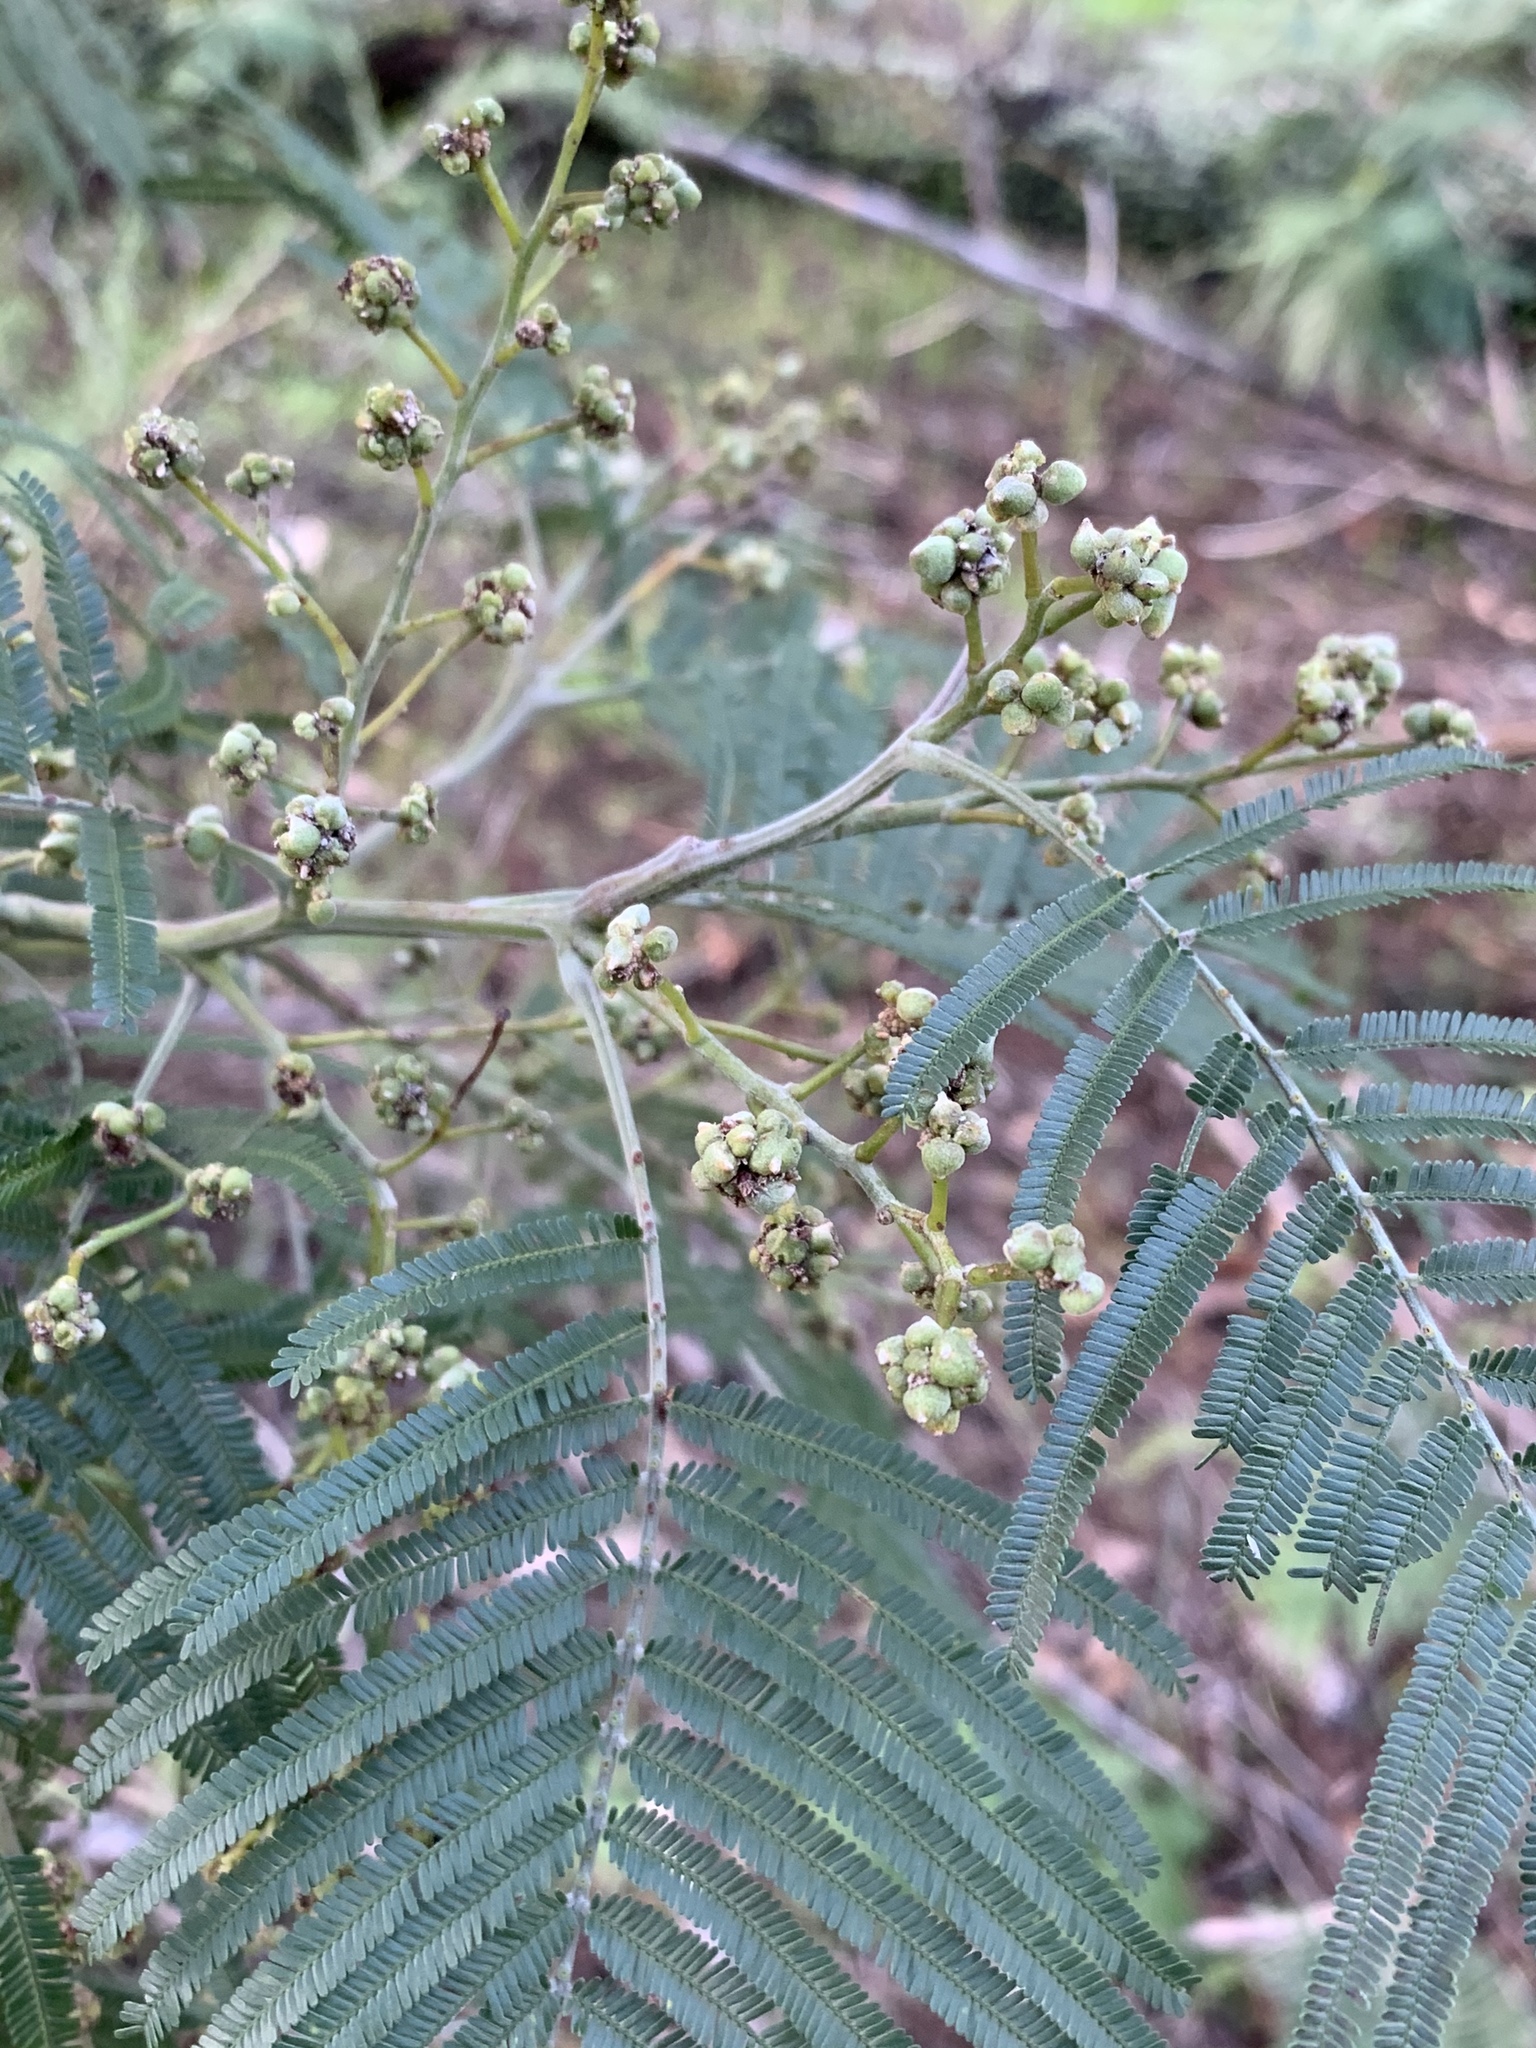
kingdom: Animalia
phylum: Arthropoda
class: Insecta
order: Diptera
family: Cecidomyiidae
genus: Dasineura
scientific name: Dasineura rubiformis
